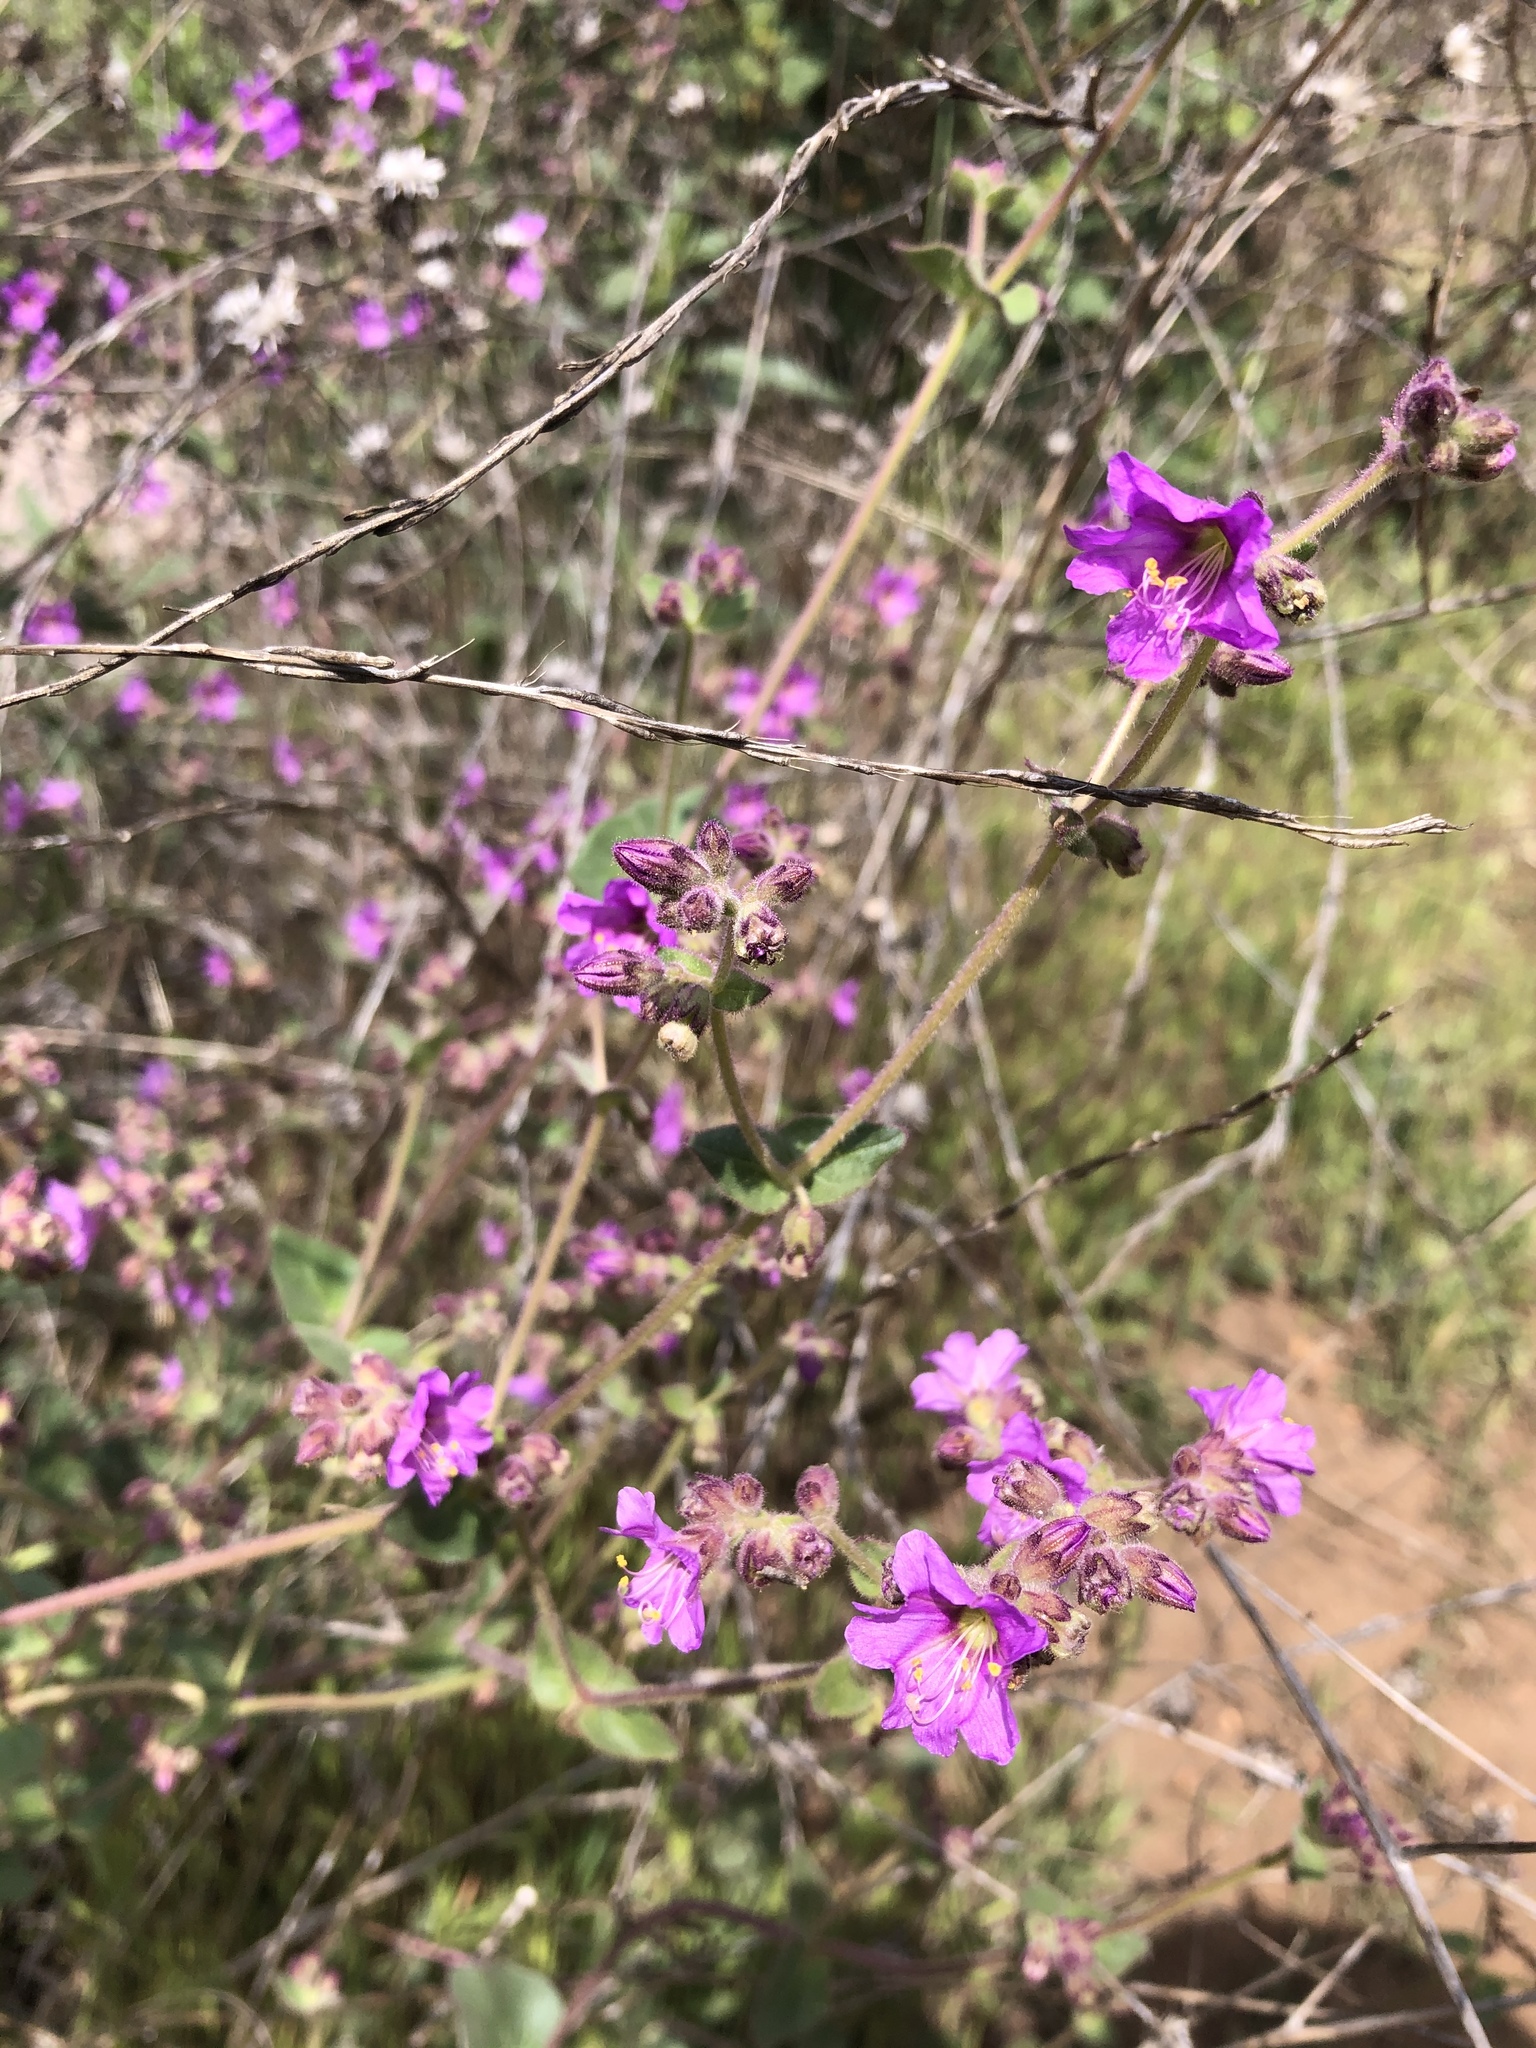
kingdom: Plantae
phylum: Tracheophyta
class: Magnoliopsida
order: Caryophyllales
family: Nyctaginaceae
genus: Mirabilis
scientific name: Mirabilis laevis
